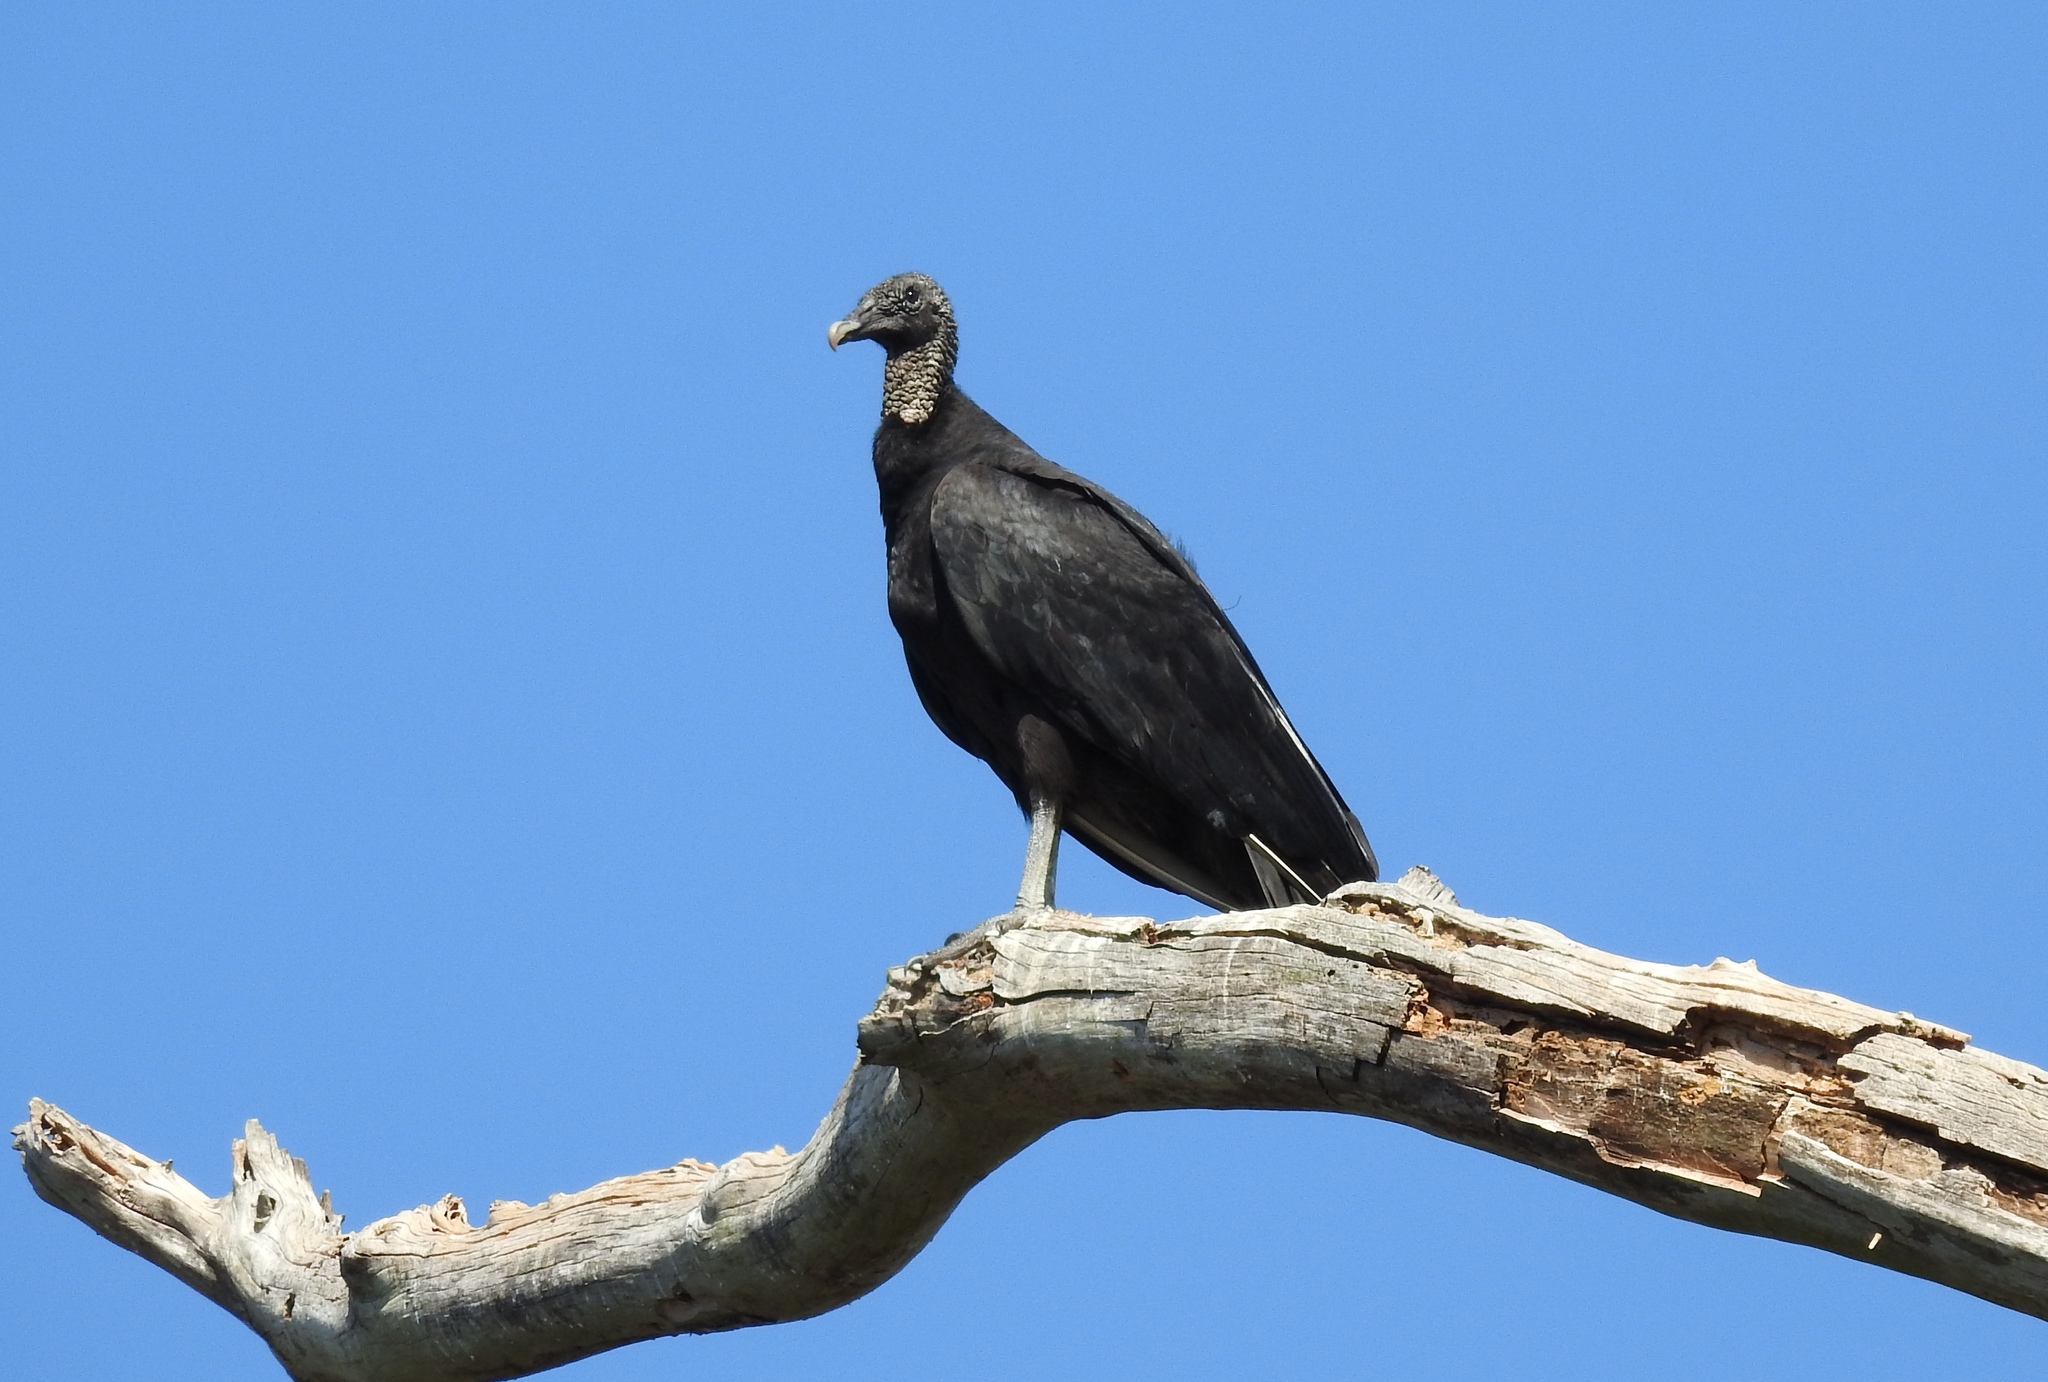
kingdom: Animalia
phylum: Chordata
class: Aves
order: Accipitriformes
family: Cathartidae
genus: Coragyps
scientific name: Coragyps atratus
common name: Black vulture
